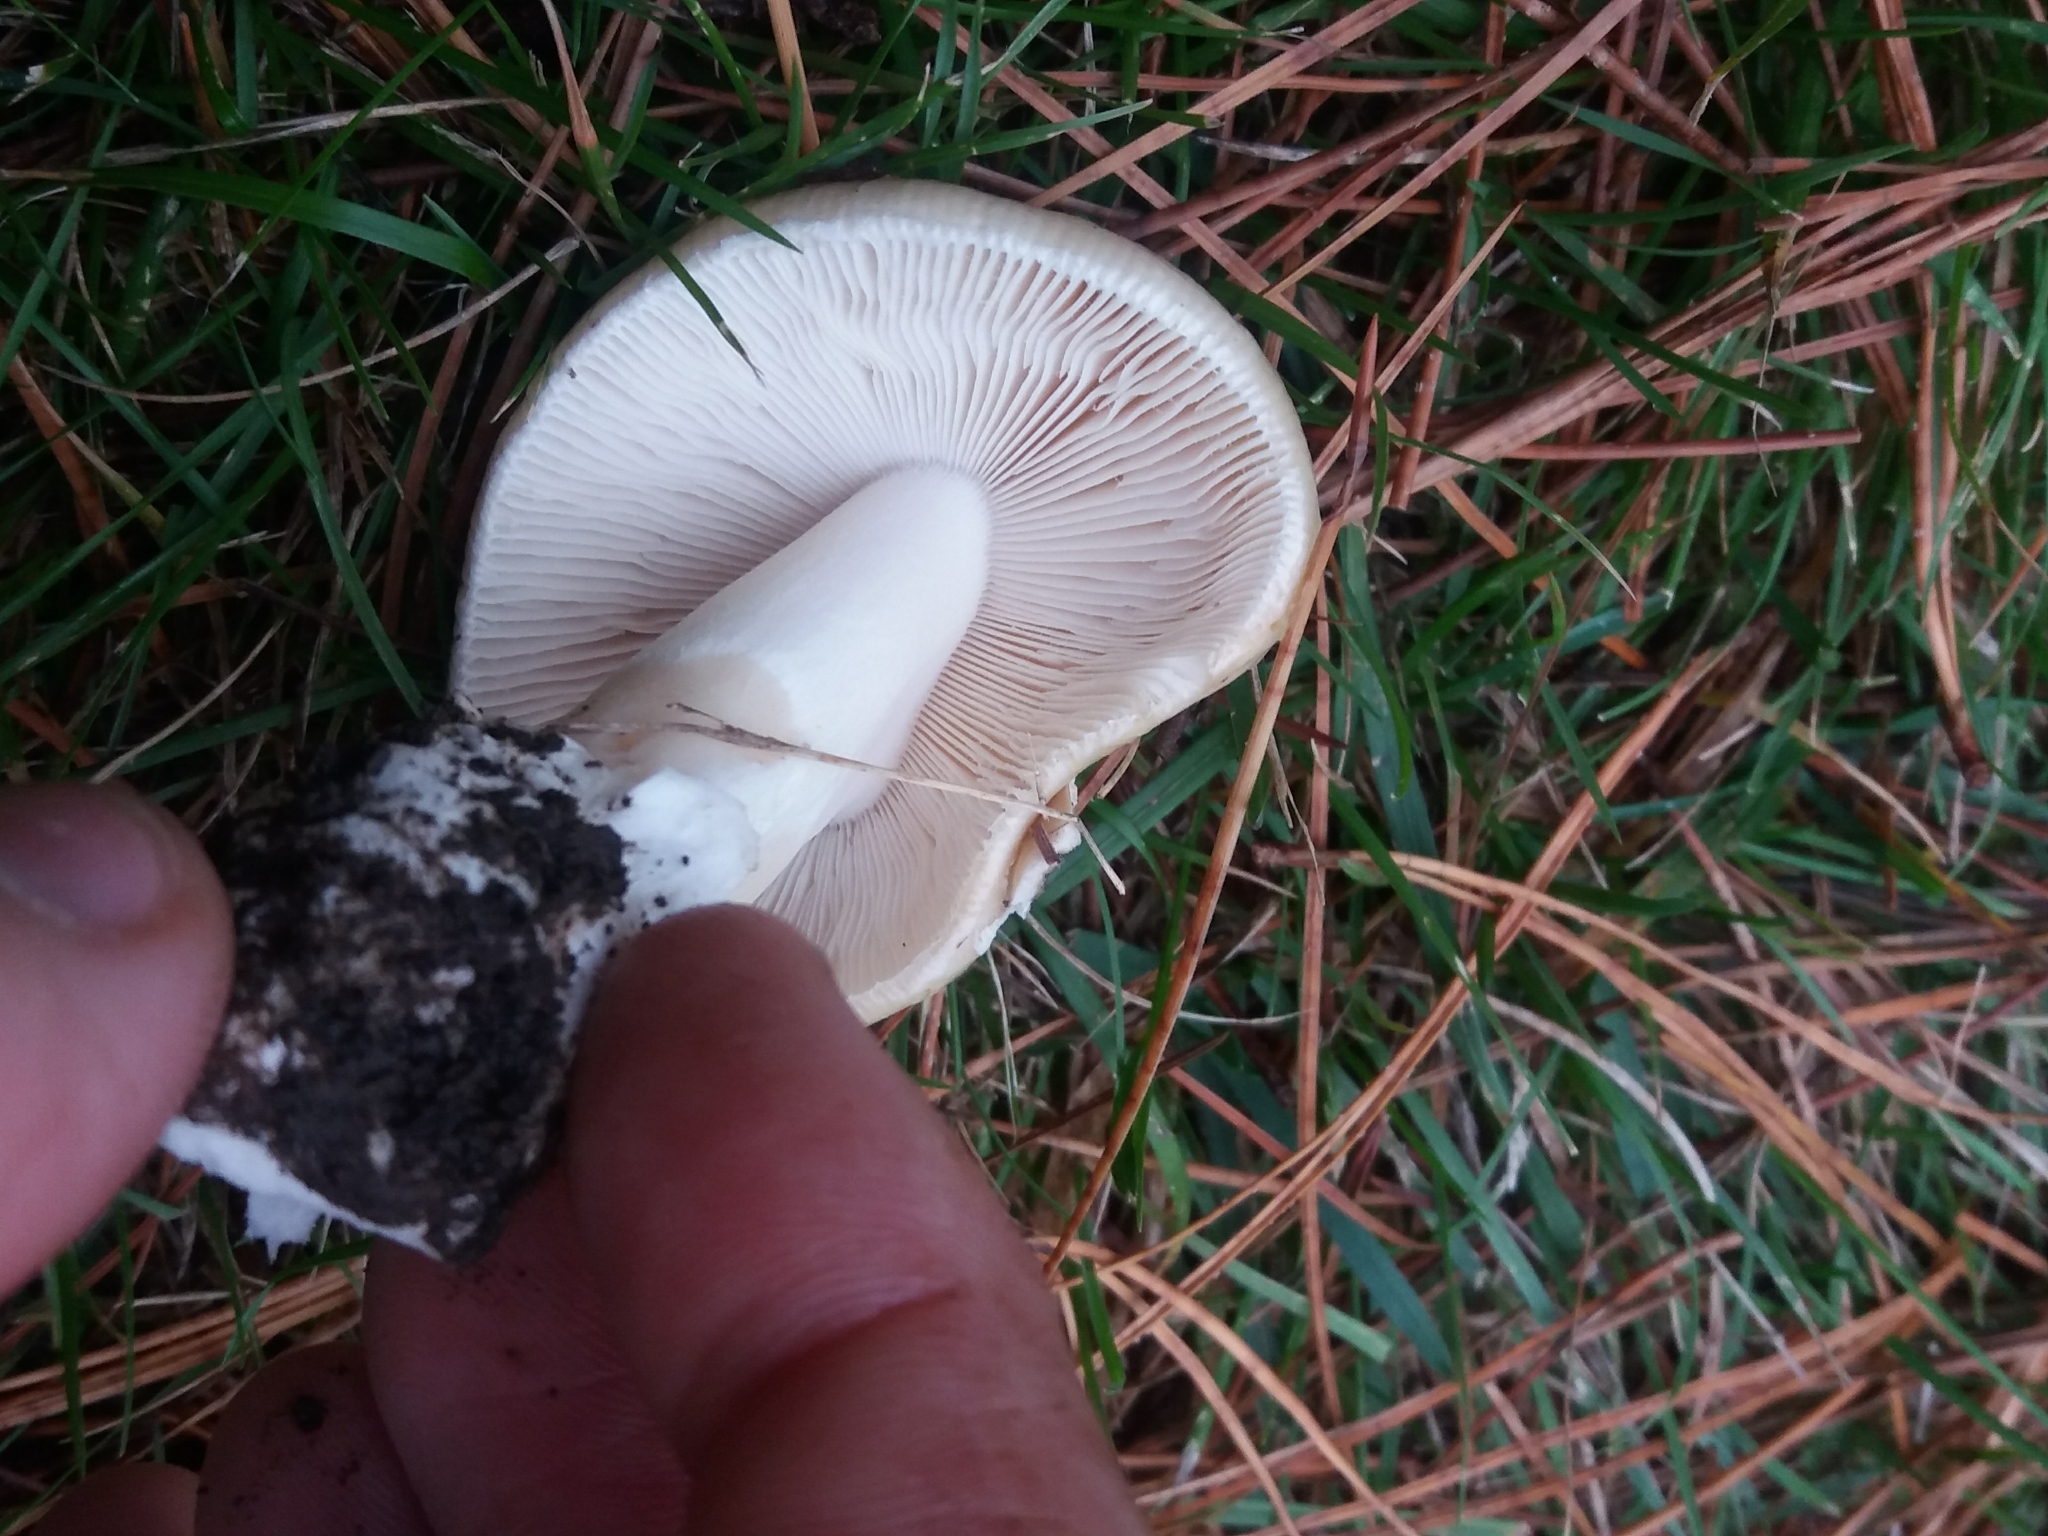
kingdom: Fungi
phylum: Basidiomycota
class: Agaricomycetes
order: Agaricales
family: Amanitaceae
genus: Amanita
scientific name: Amanita gemmata
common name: Jewelled amanita
